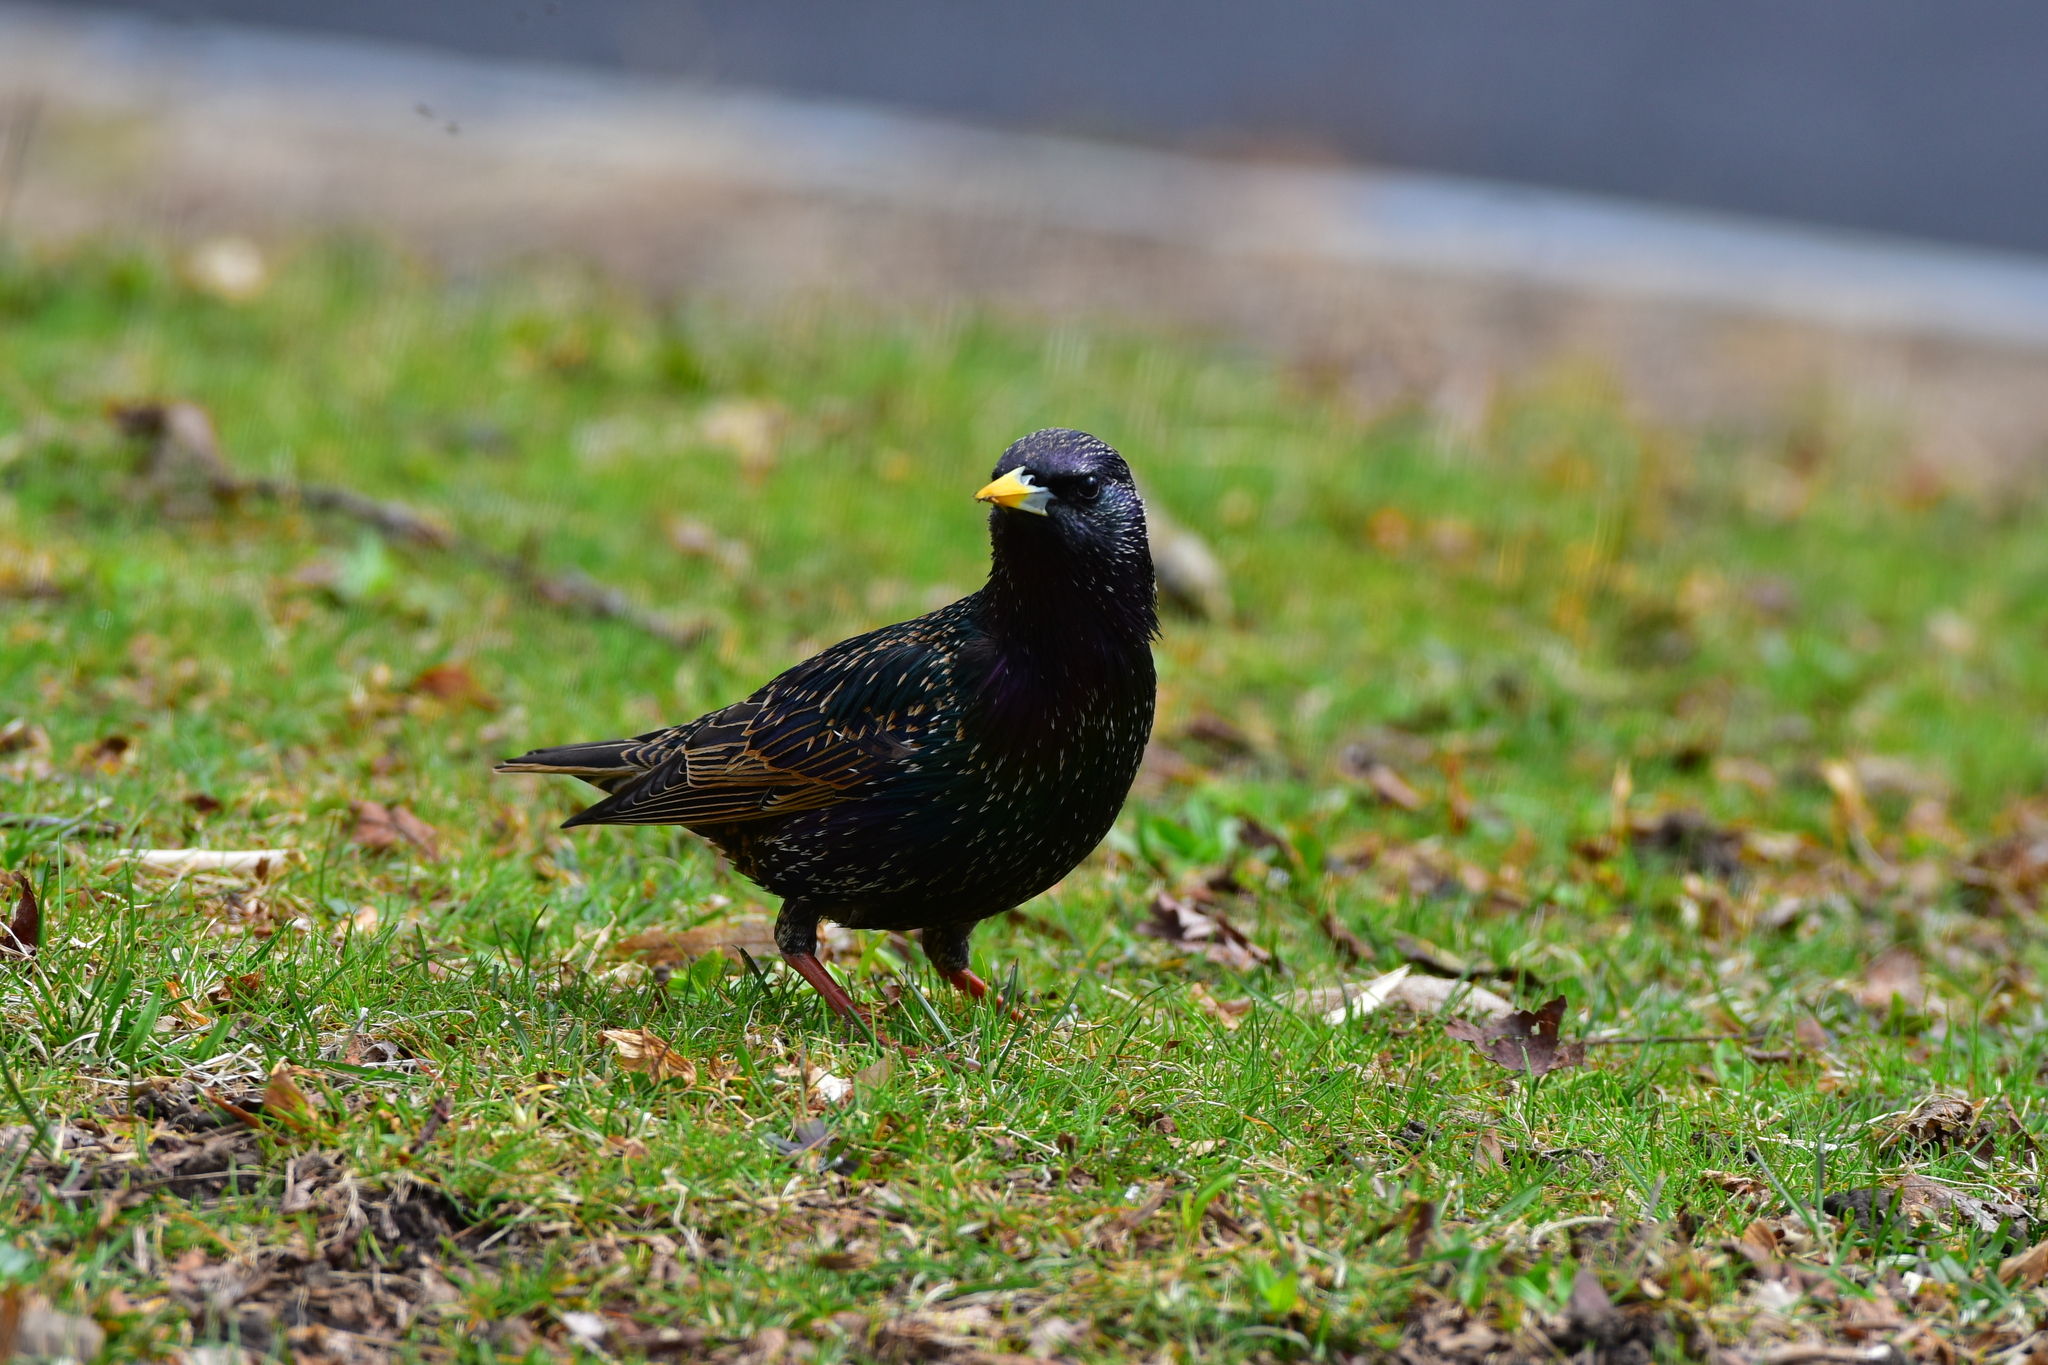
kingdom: Animalia
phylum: Chordata
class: Aves
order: Passeriformes
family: Sturnidae
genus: Sturnus
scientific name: Sturnus vulgaris
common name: Common starling
